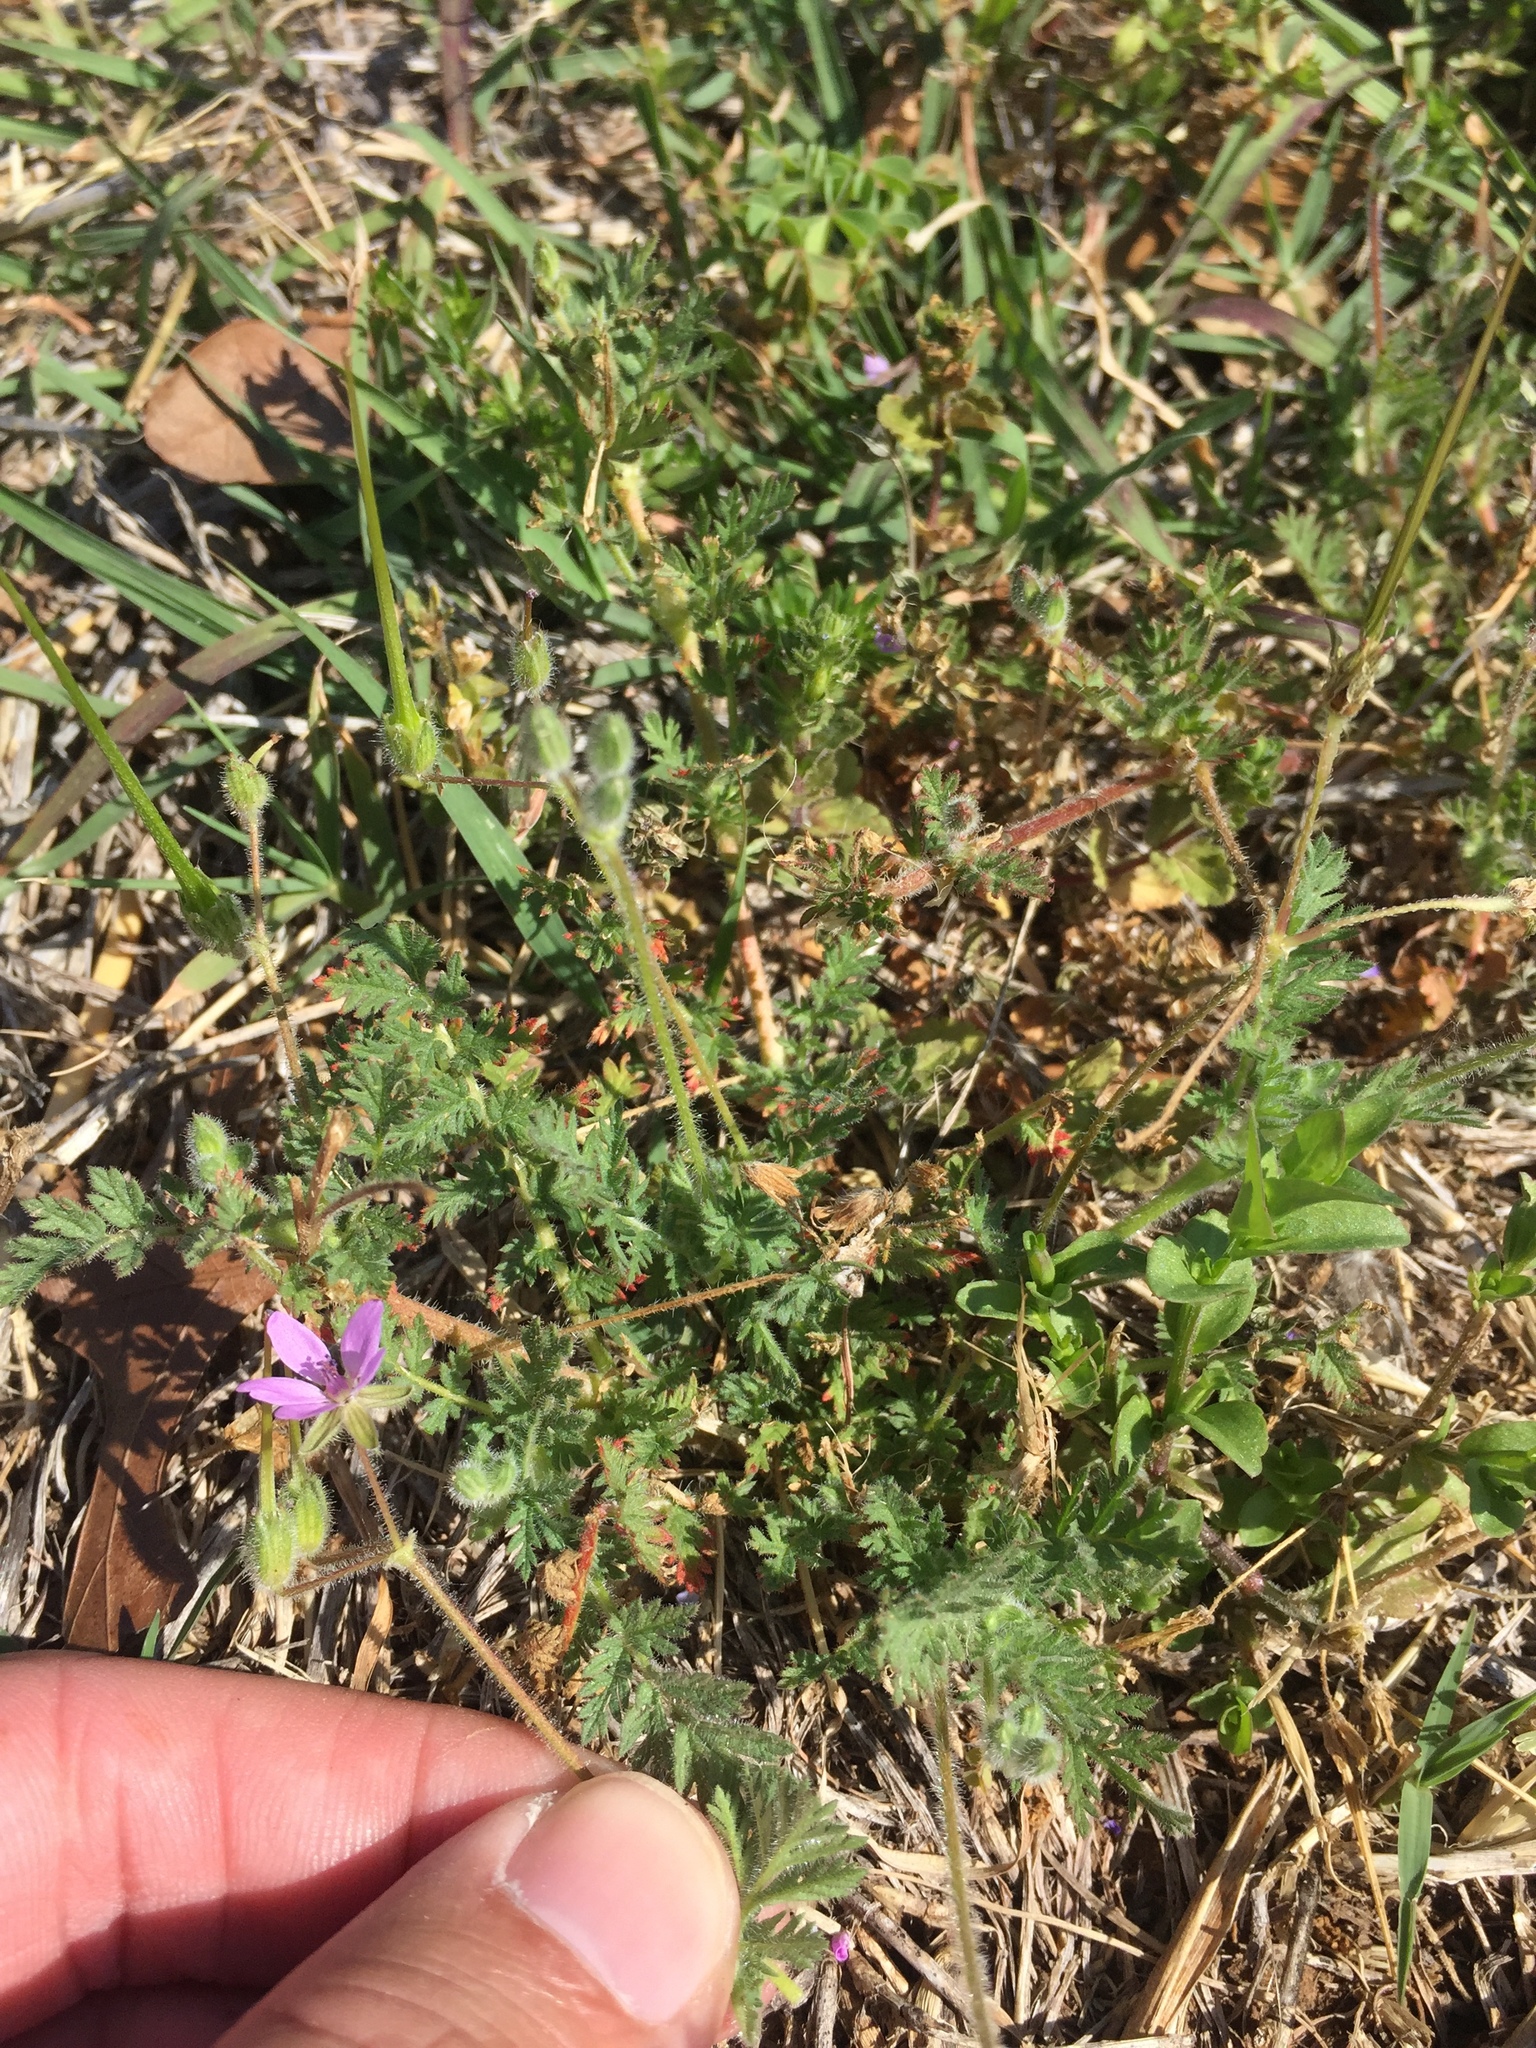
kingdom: Plantae
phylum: Tracheophyta
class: Magnoliopsida
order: Geraniales
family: Geraniaceae
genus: Erodium
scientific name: Erodium cicutarium
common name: Common stork's-bill
